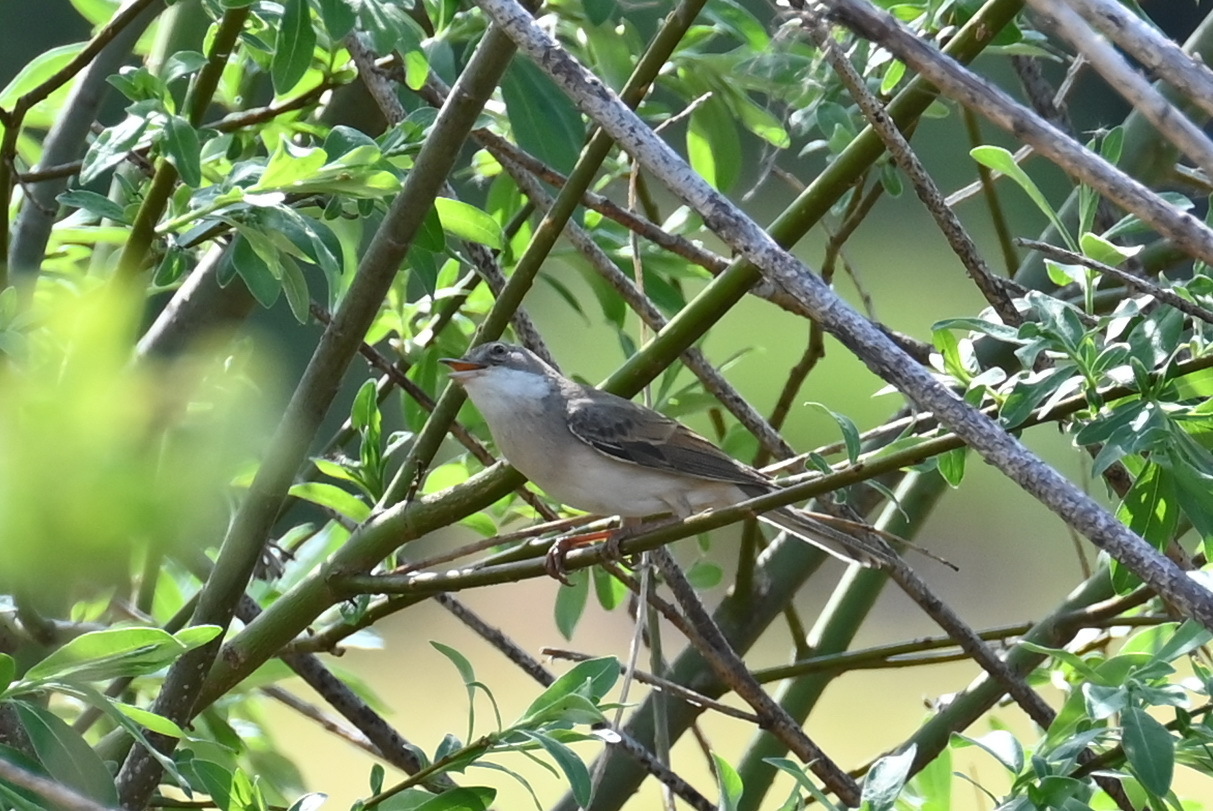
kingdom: Animalia
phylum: Chordata
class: Aves
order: Passeriformes
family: Sylviidae
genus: Sylvia
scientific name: Sylvia communis
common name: Common whitethroat
